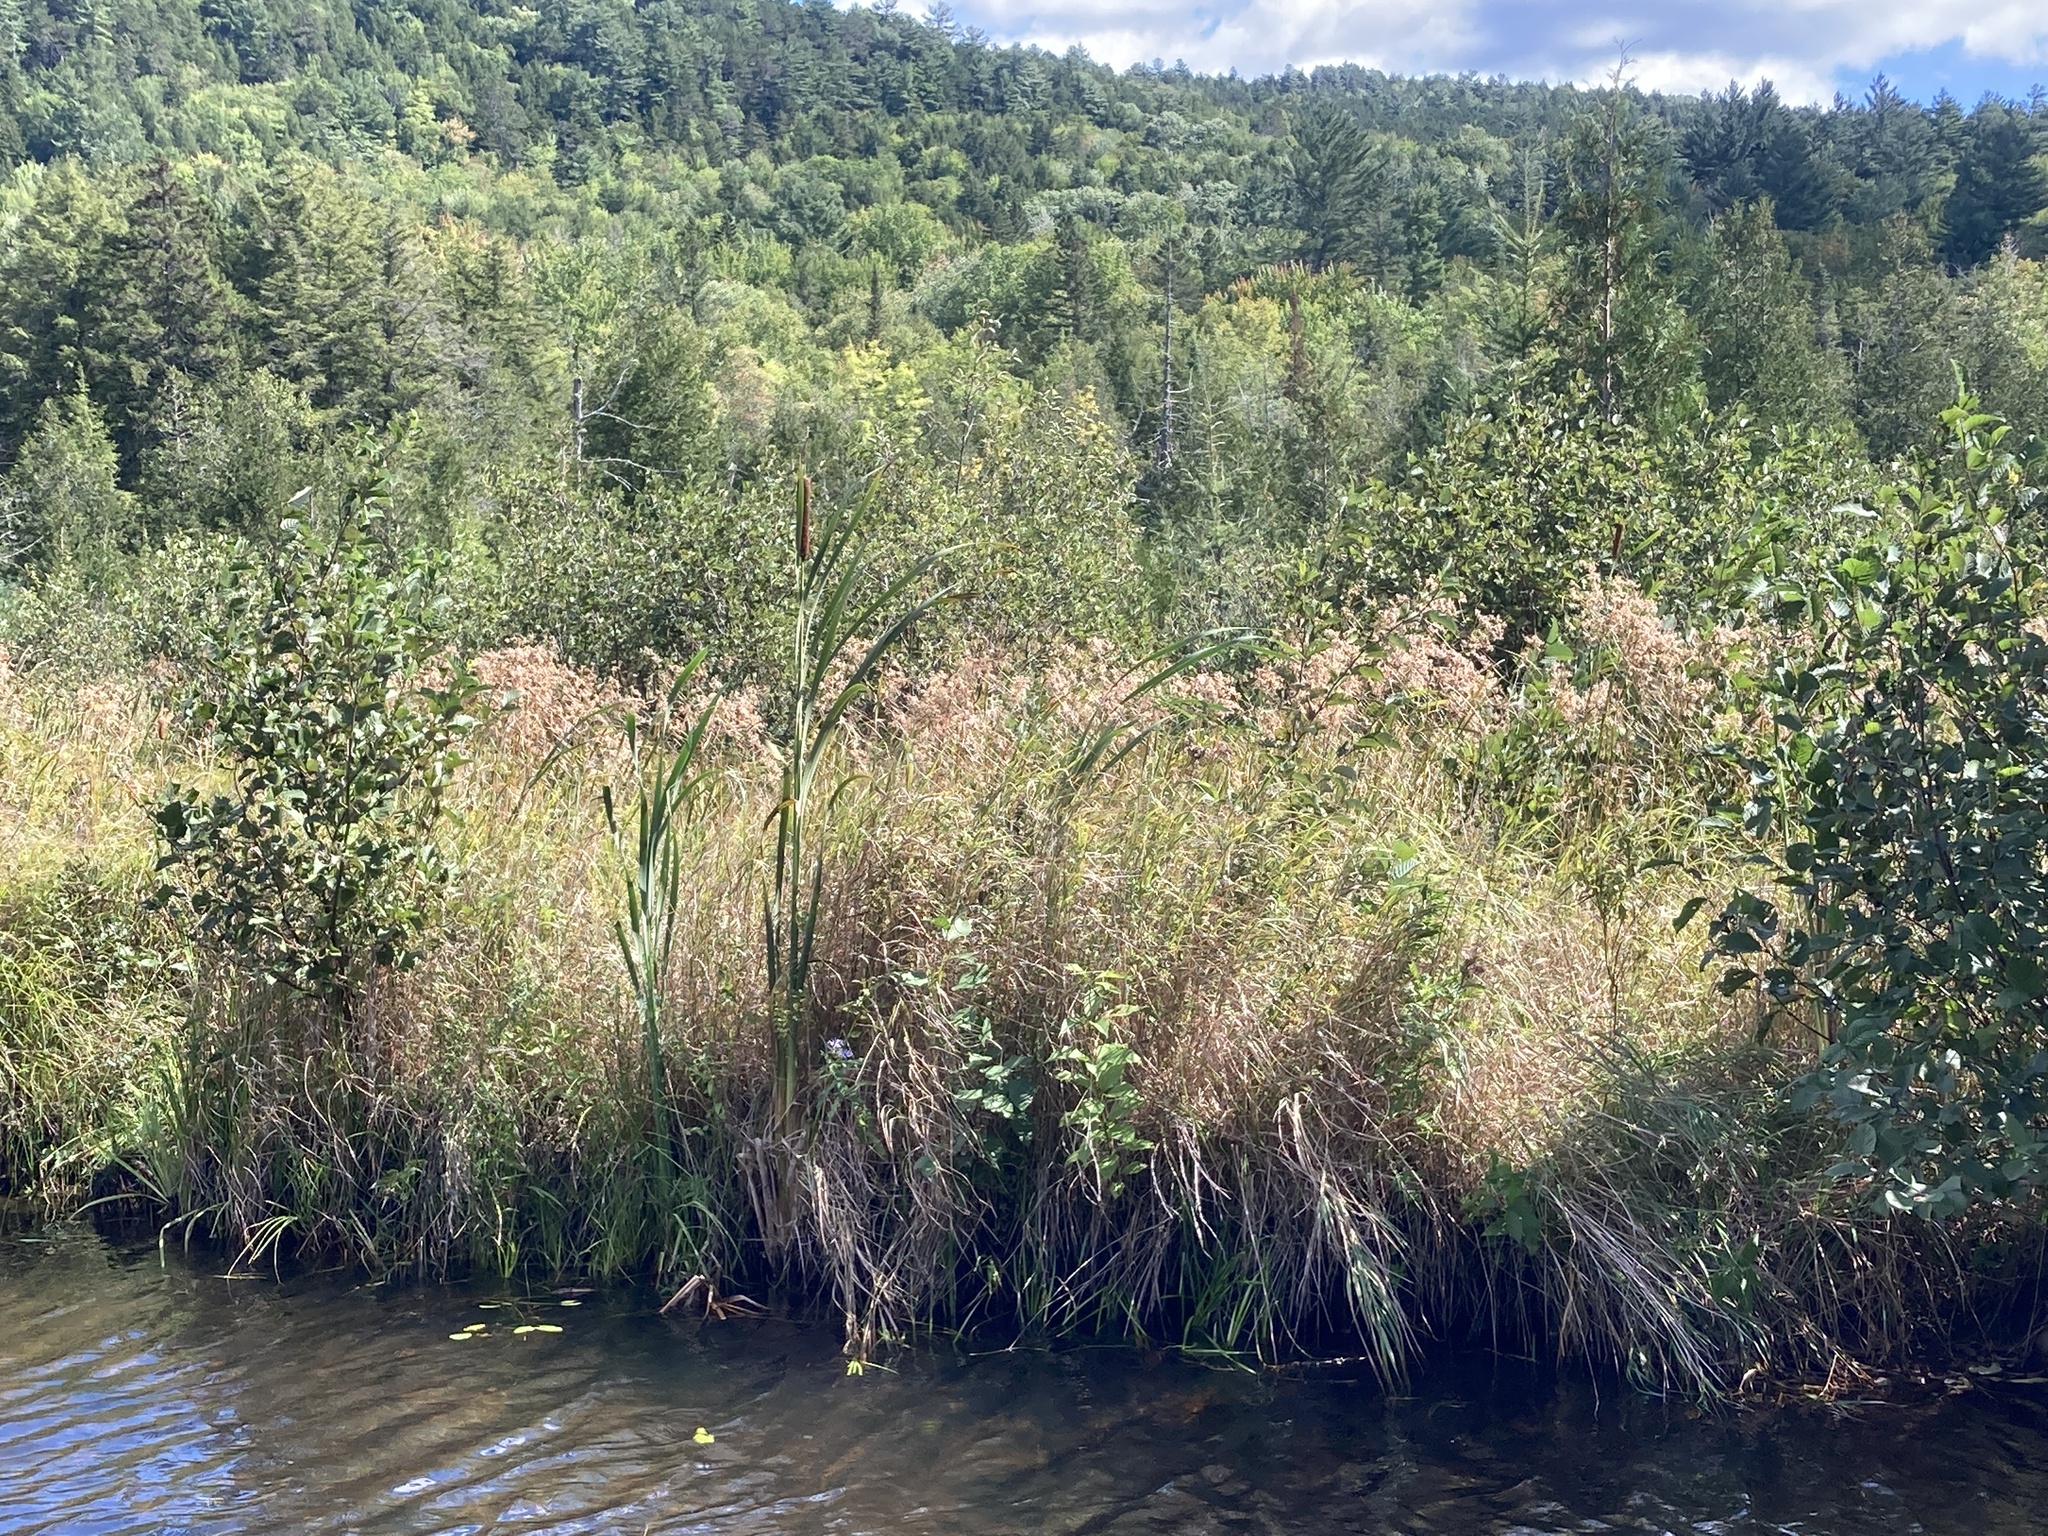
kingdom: Plantae
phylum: Tracheophyta
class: Liliopsida
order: Poales
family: Cyperaceae
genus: Scirpus
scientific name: Scirpus cyperinus
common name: Black-sheathed bulrush
